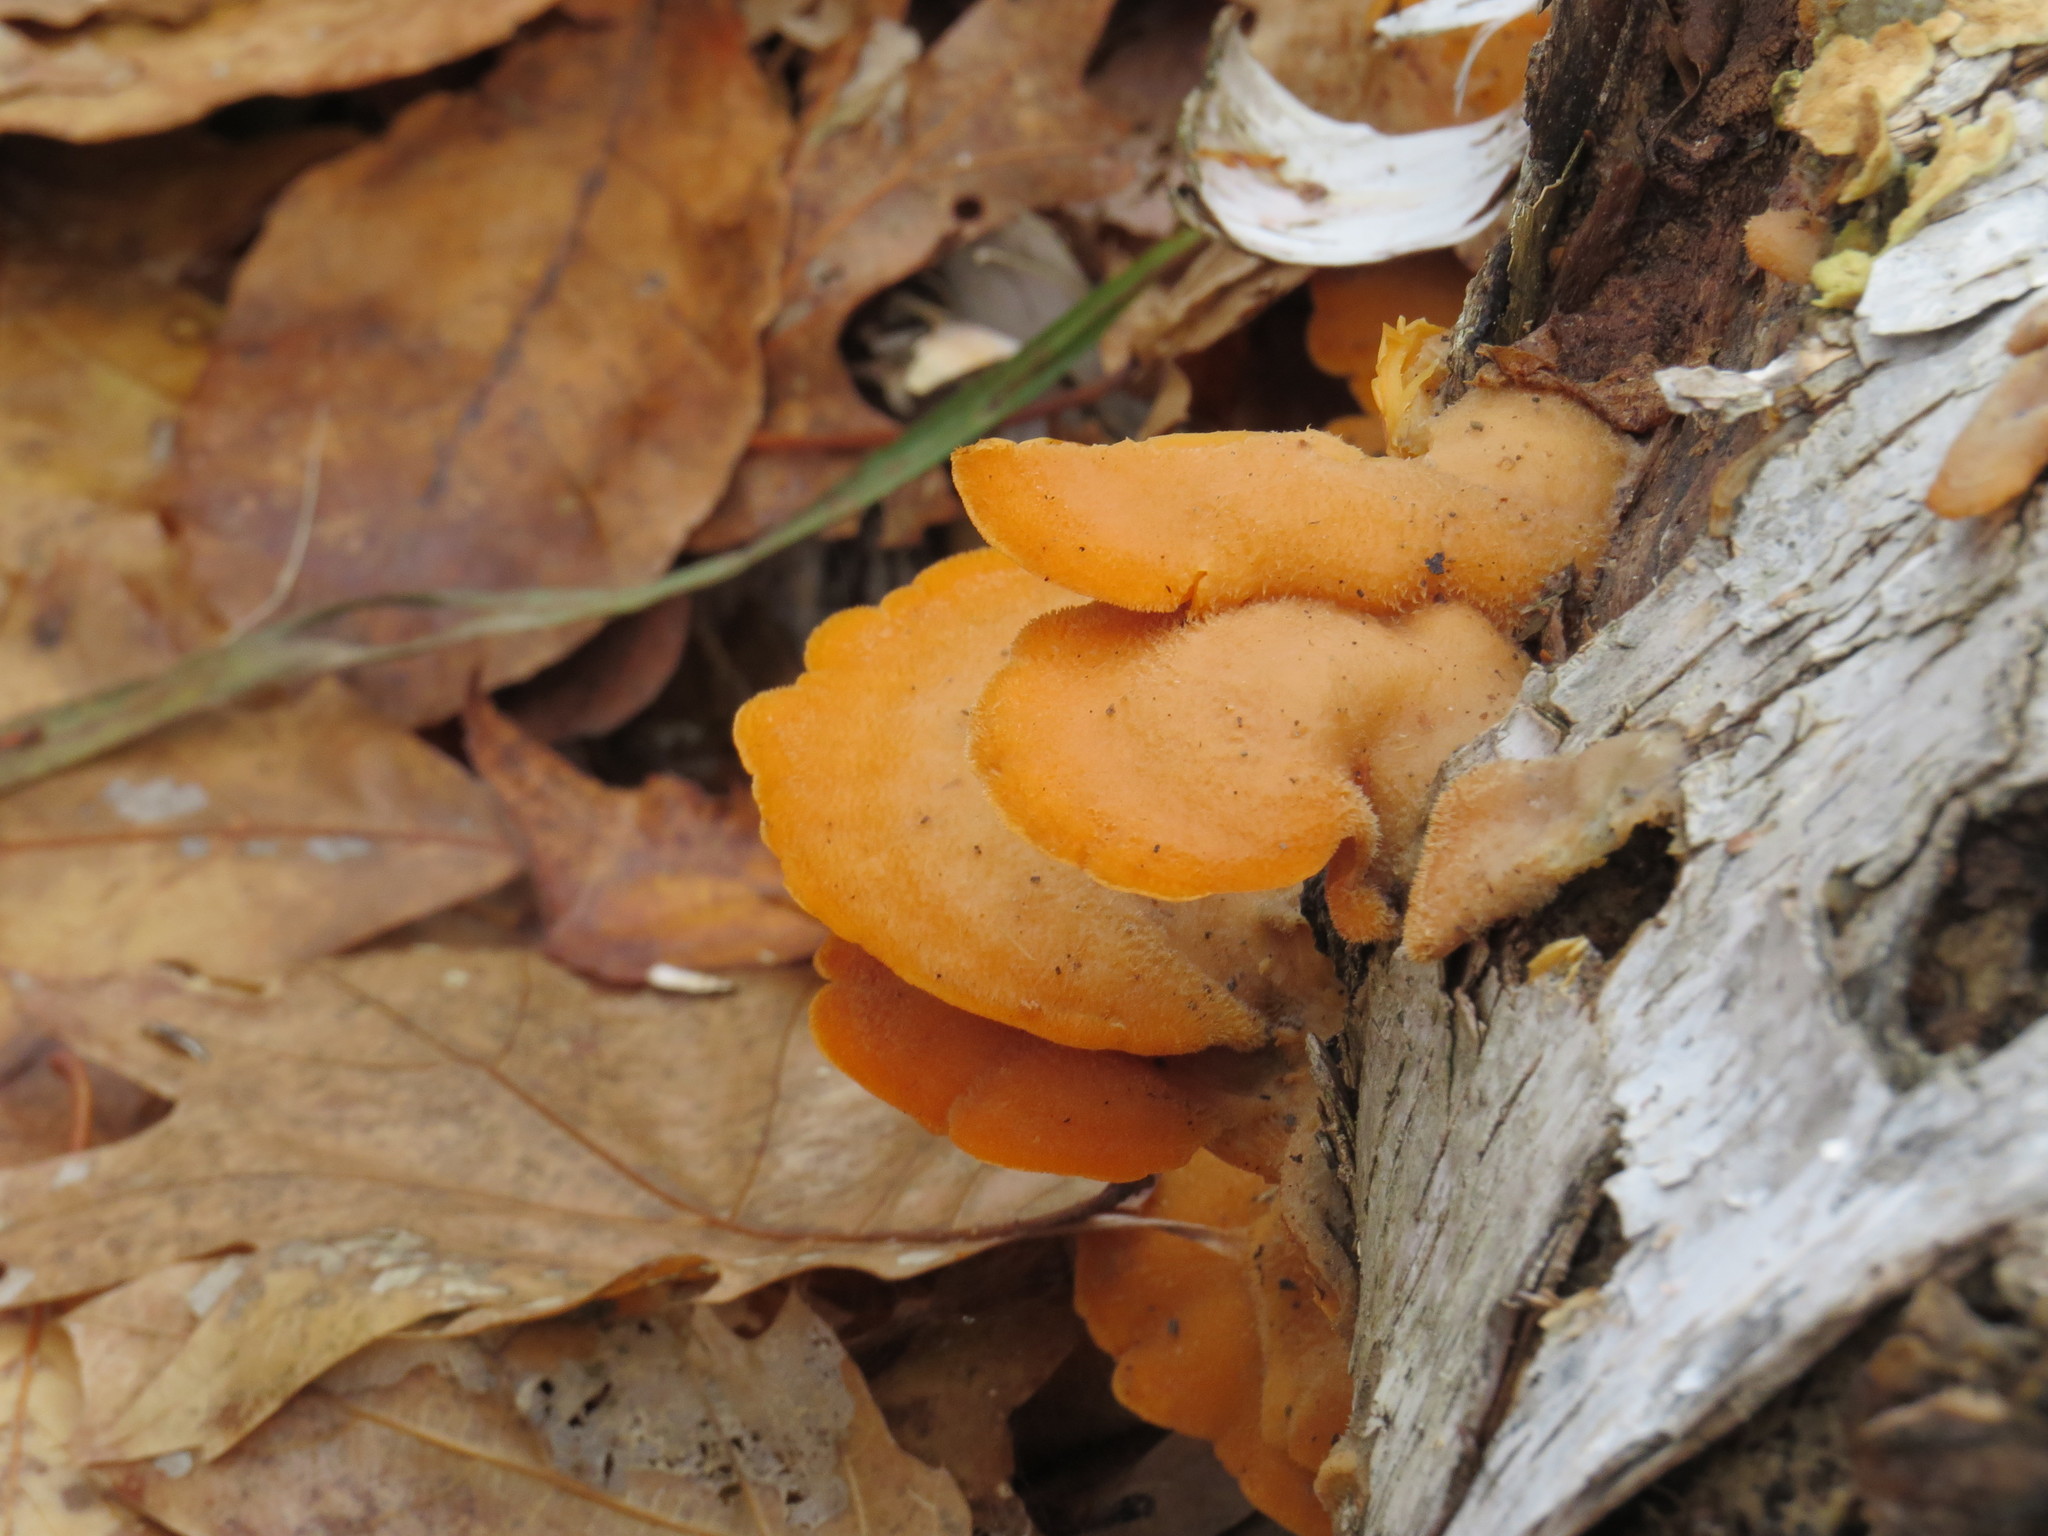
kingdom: Fungi
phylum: Basidiomycota
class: Agaricomycetes
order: Agaricales
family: Phyllotopsidaceae
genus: Phyllotopsis
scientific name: Phyllotopsis nidulans
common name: Orange mock oyster
